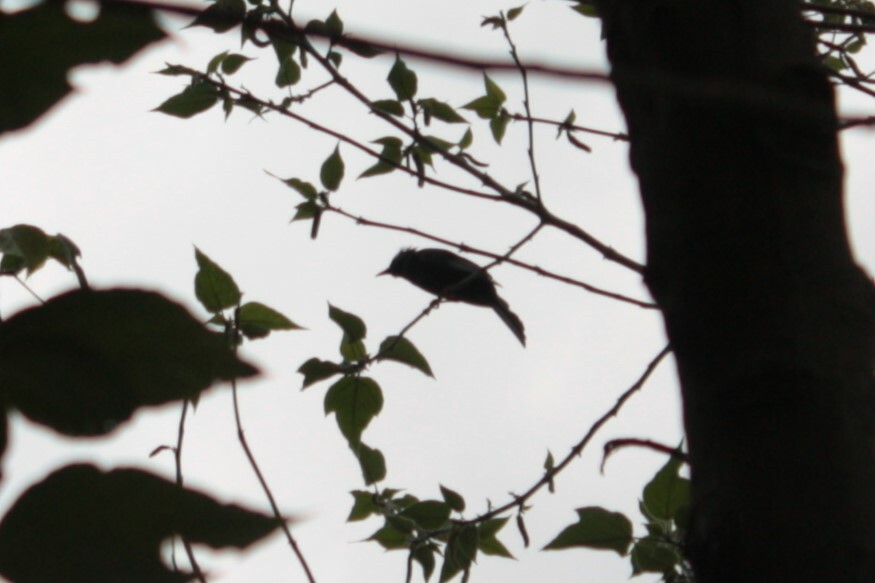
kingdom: Animalia
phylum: Chordata
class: Aves
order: Passeriformes
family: Pycnonotidae
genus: Hypsipetes
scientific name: Hypsipetes leucocephalus
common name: Black bulbul
